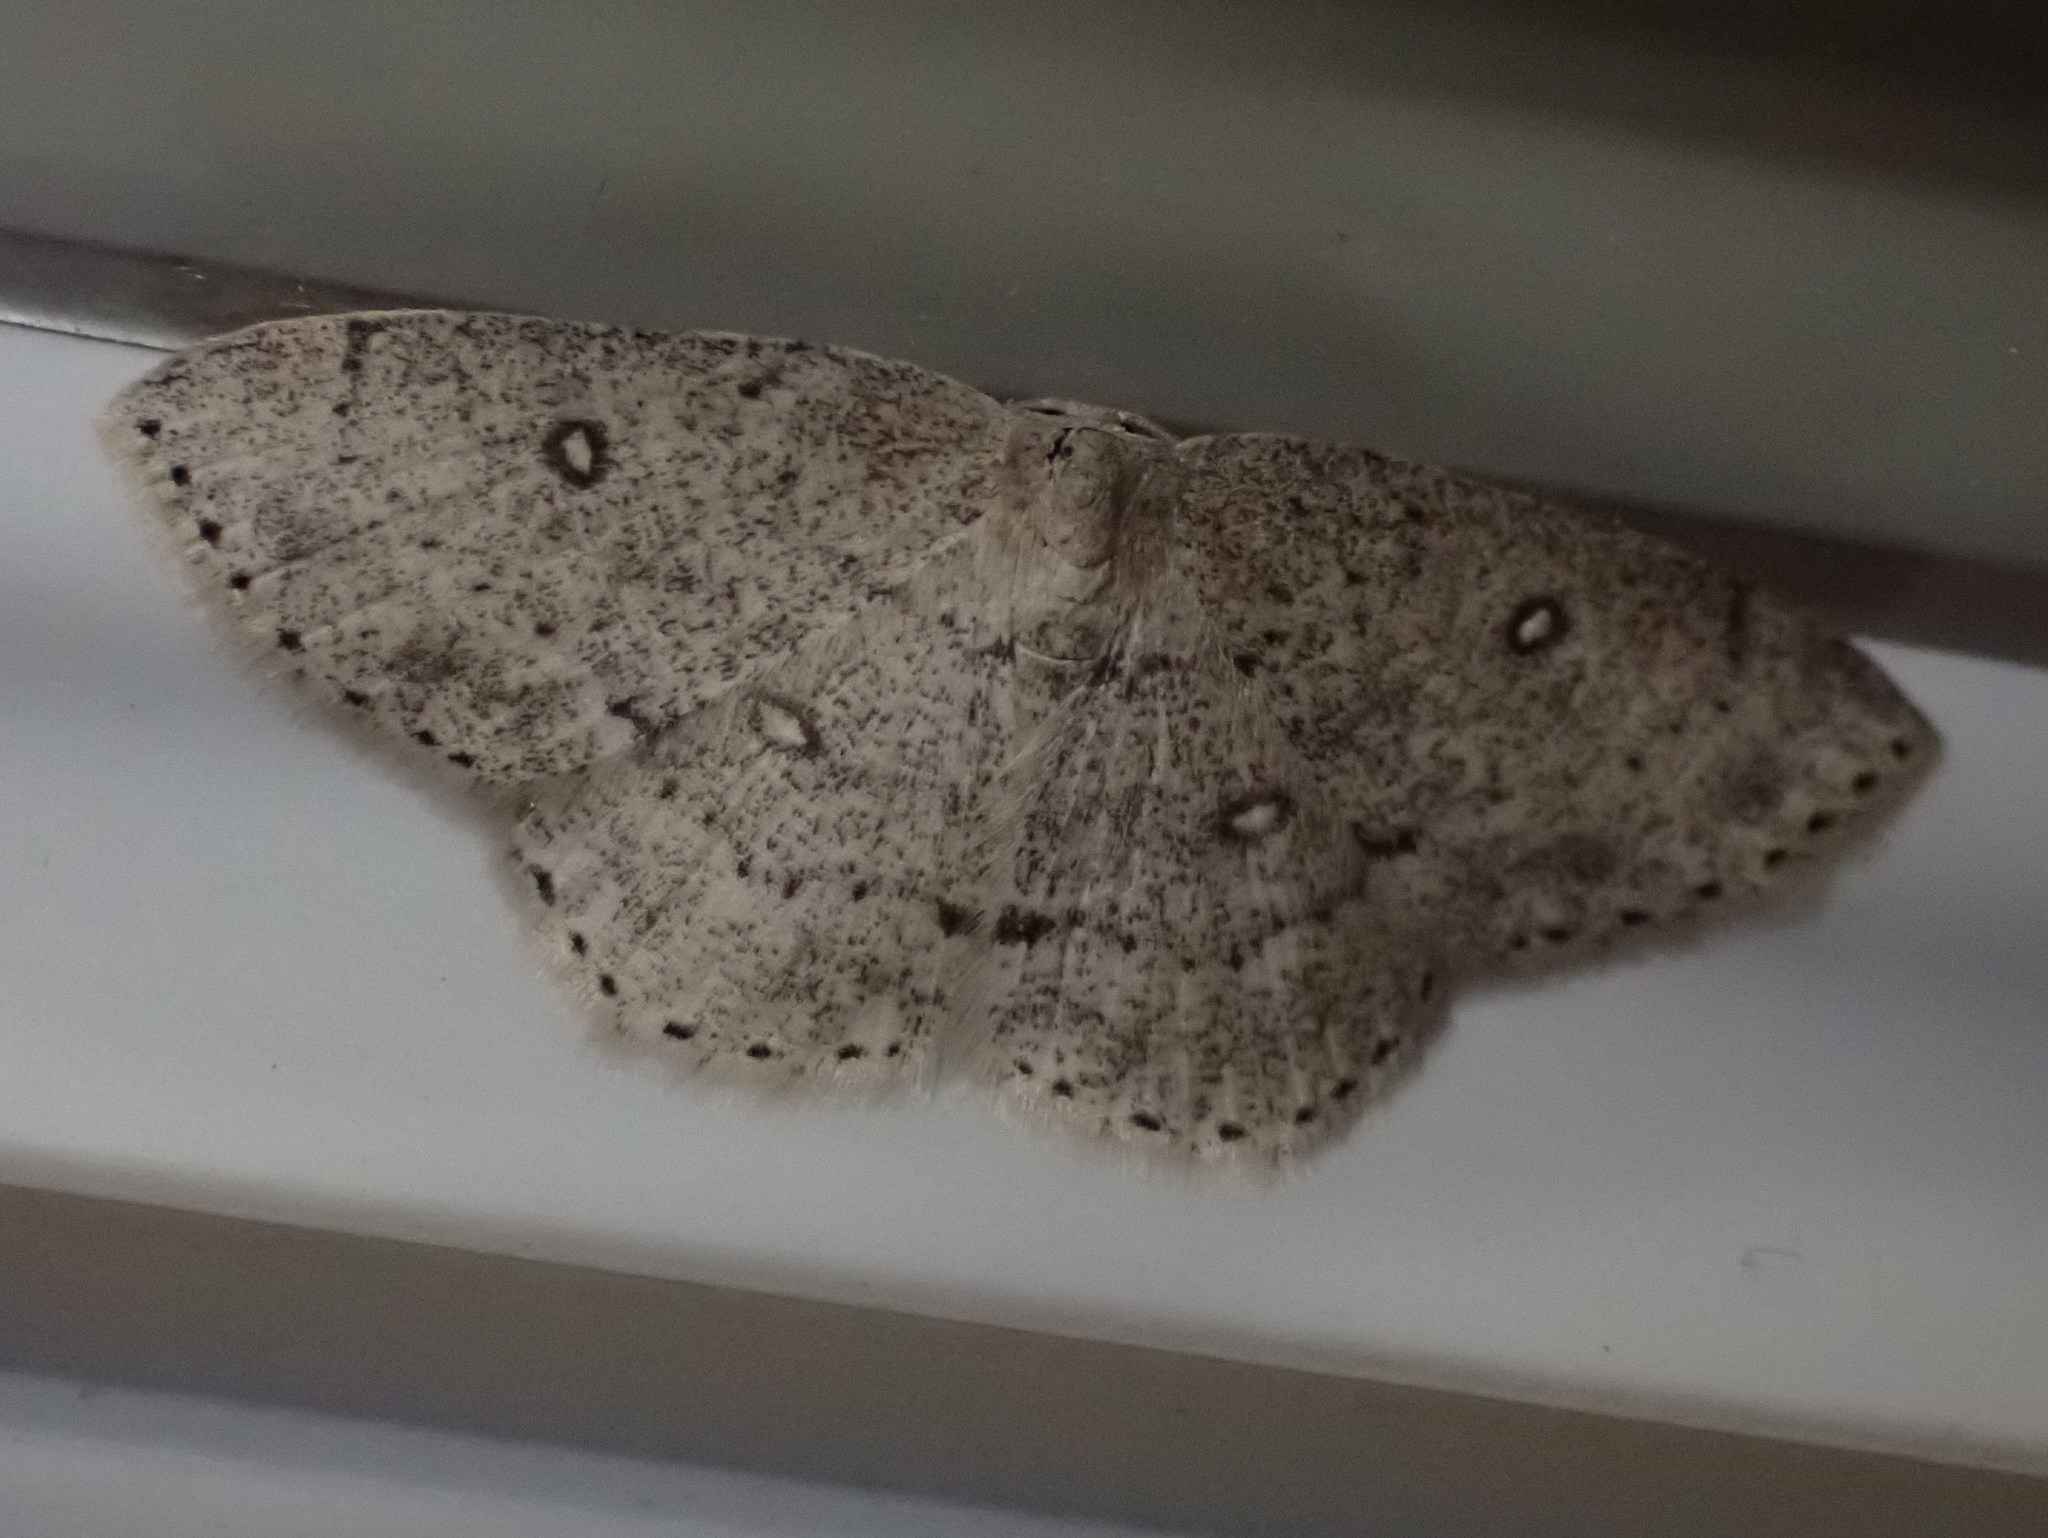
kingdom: Animalia
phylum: Arthropoda
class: Insecta
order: Lepidoptera
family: Geometridae
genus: Cyclophora
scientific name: Cyclophora pendulinaria
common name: Sweet fern geometer
